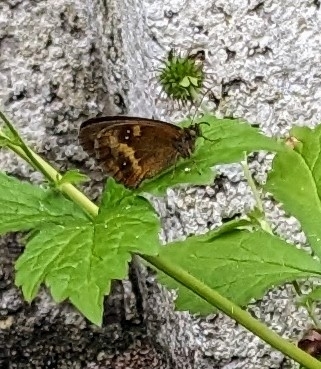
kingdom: Animalia
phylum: Arthropoda
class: Insecta
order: Lepidoptera
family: Nymphalidae
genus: Pyronia
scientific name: Pyronia tithonus
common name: Gatekeeper
